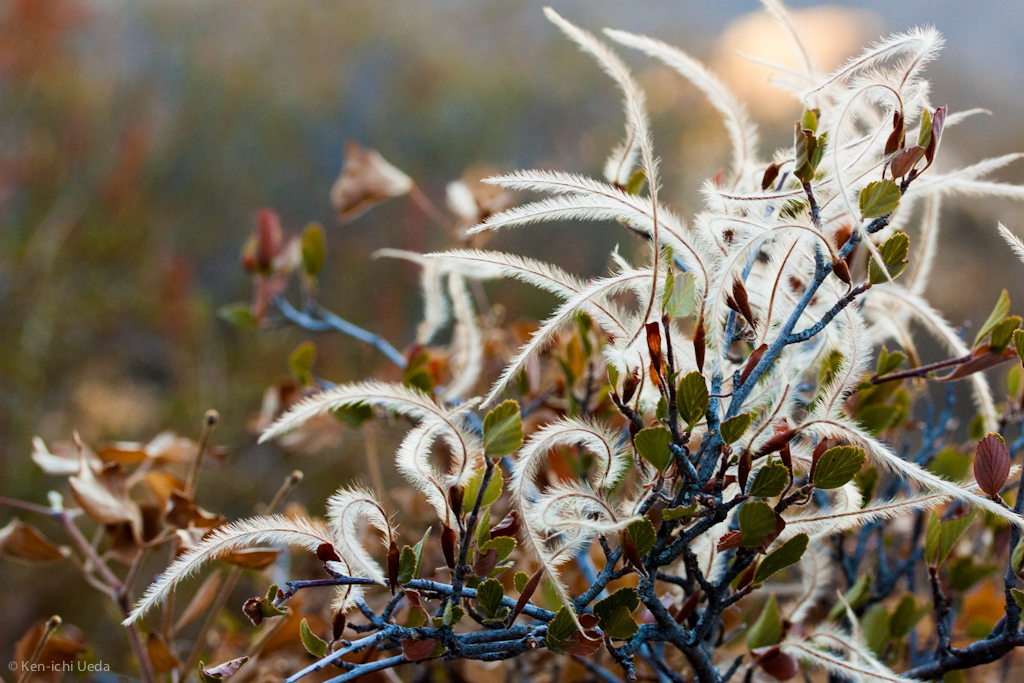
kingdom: Plantae
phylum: Tracheophyta
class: Magnoliopsida
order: Rosales
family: Rosaceae
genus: Cercocarpus
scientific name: Cercocarpus betuloides
